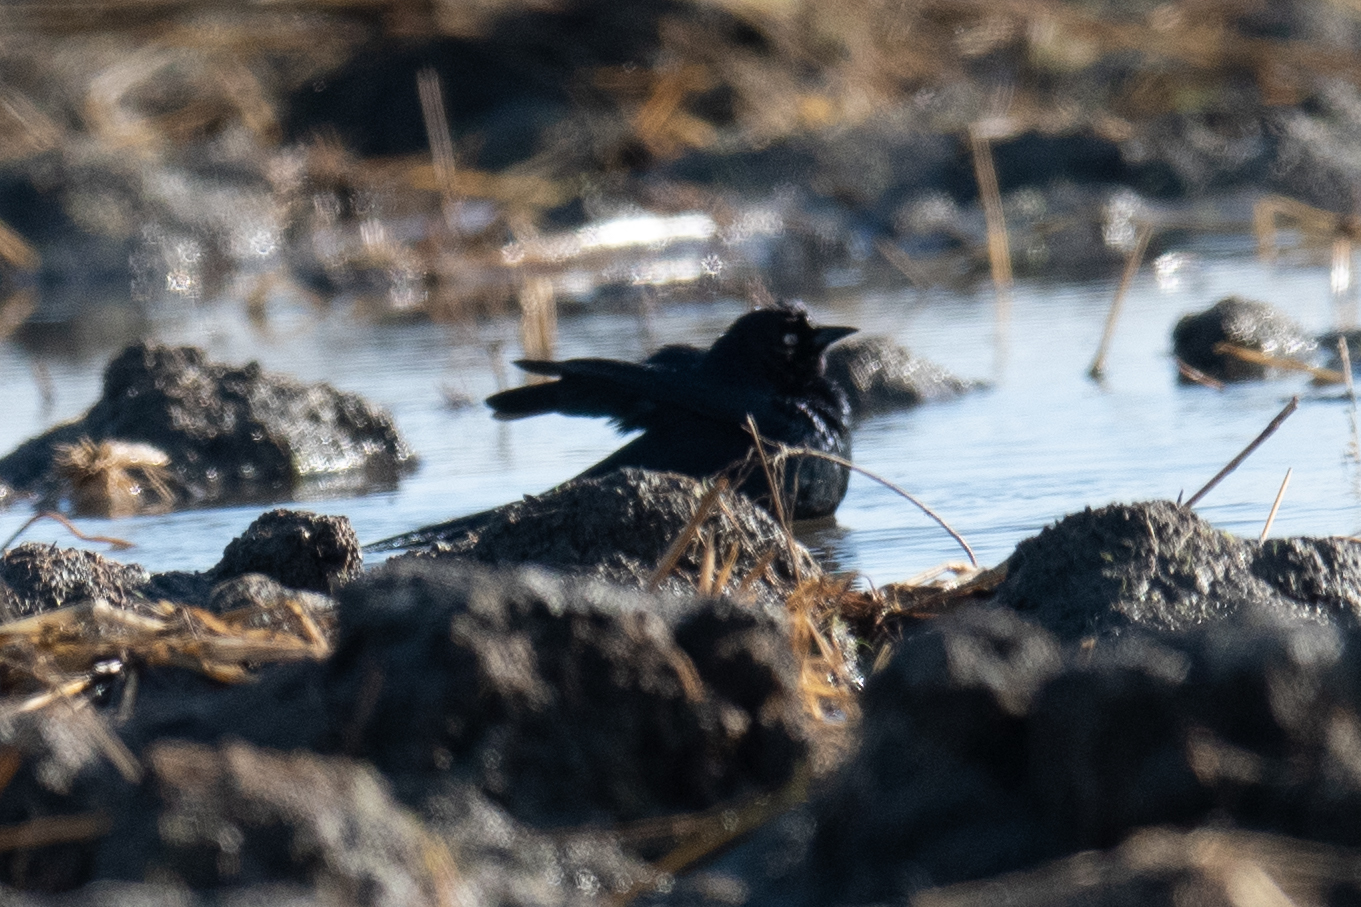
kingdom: Animalia
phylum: Chordata
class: Aves
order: Passeriformes
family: Icteridae
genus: Euphagus
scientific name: Euphagus cyanocephalus
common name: Brewer's blackbird
